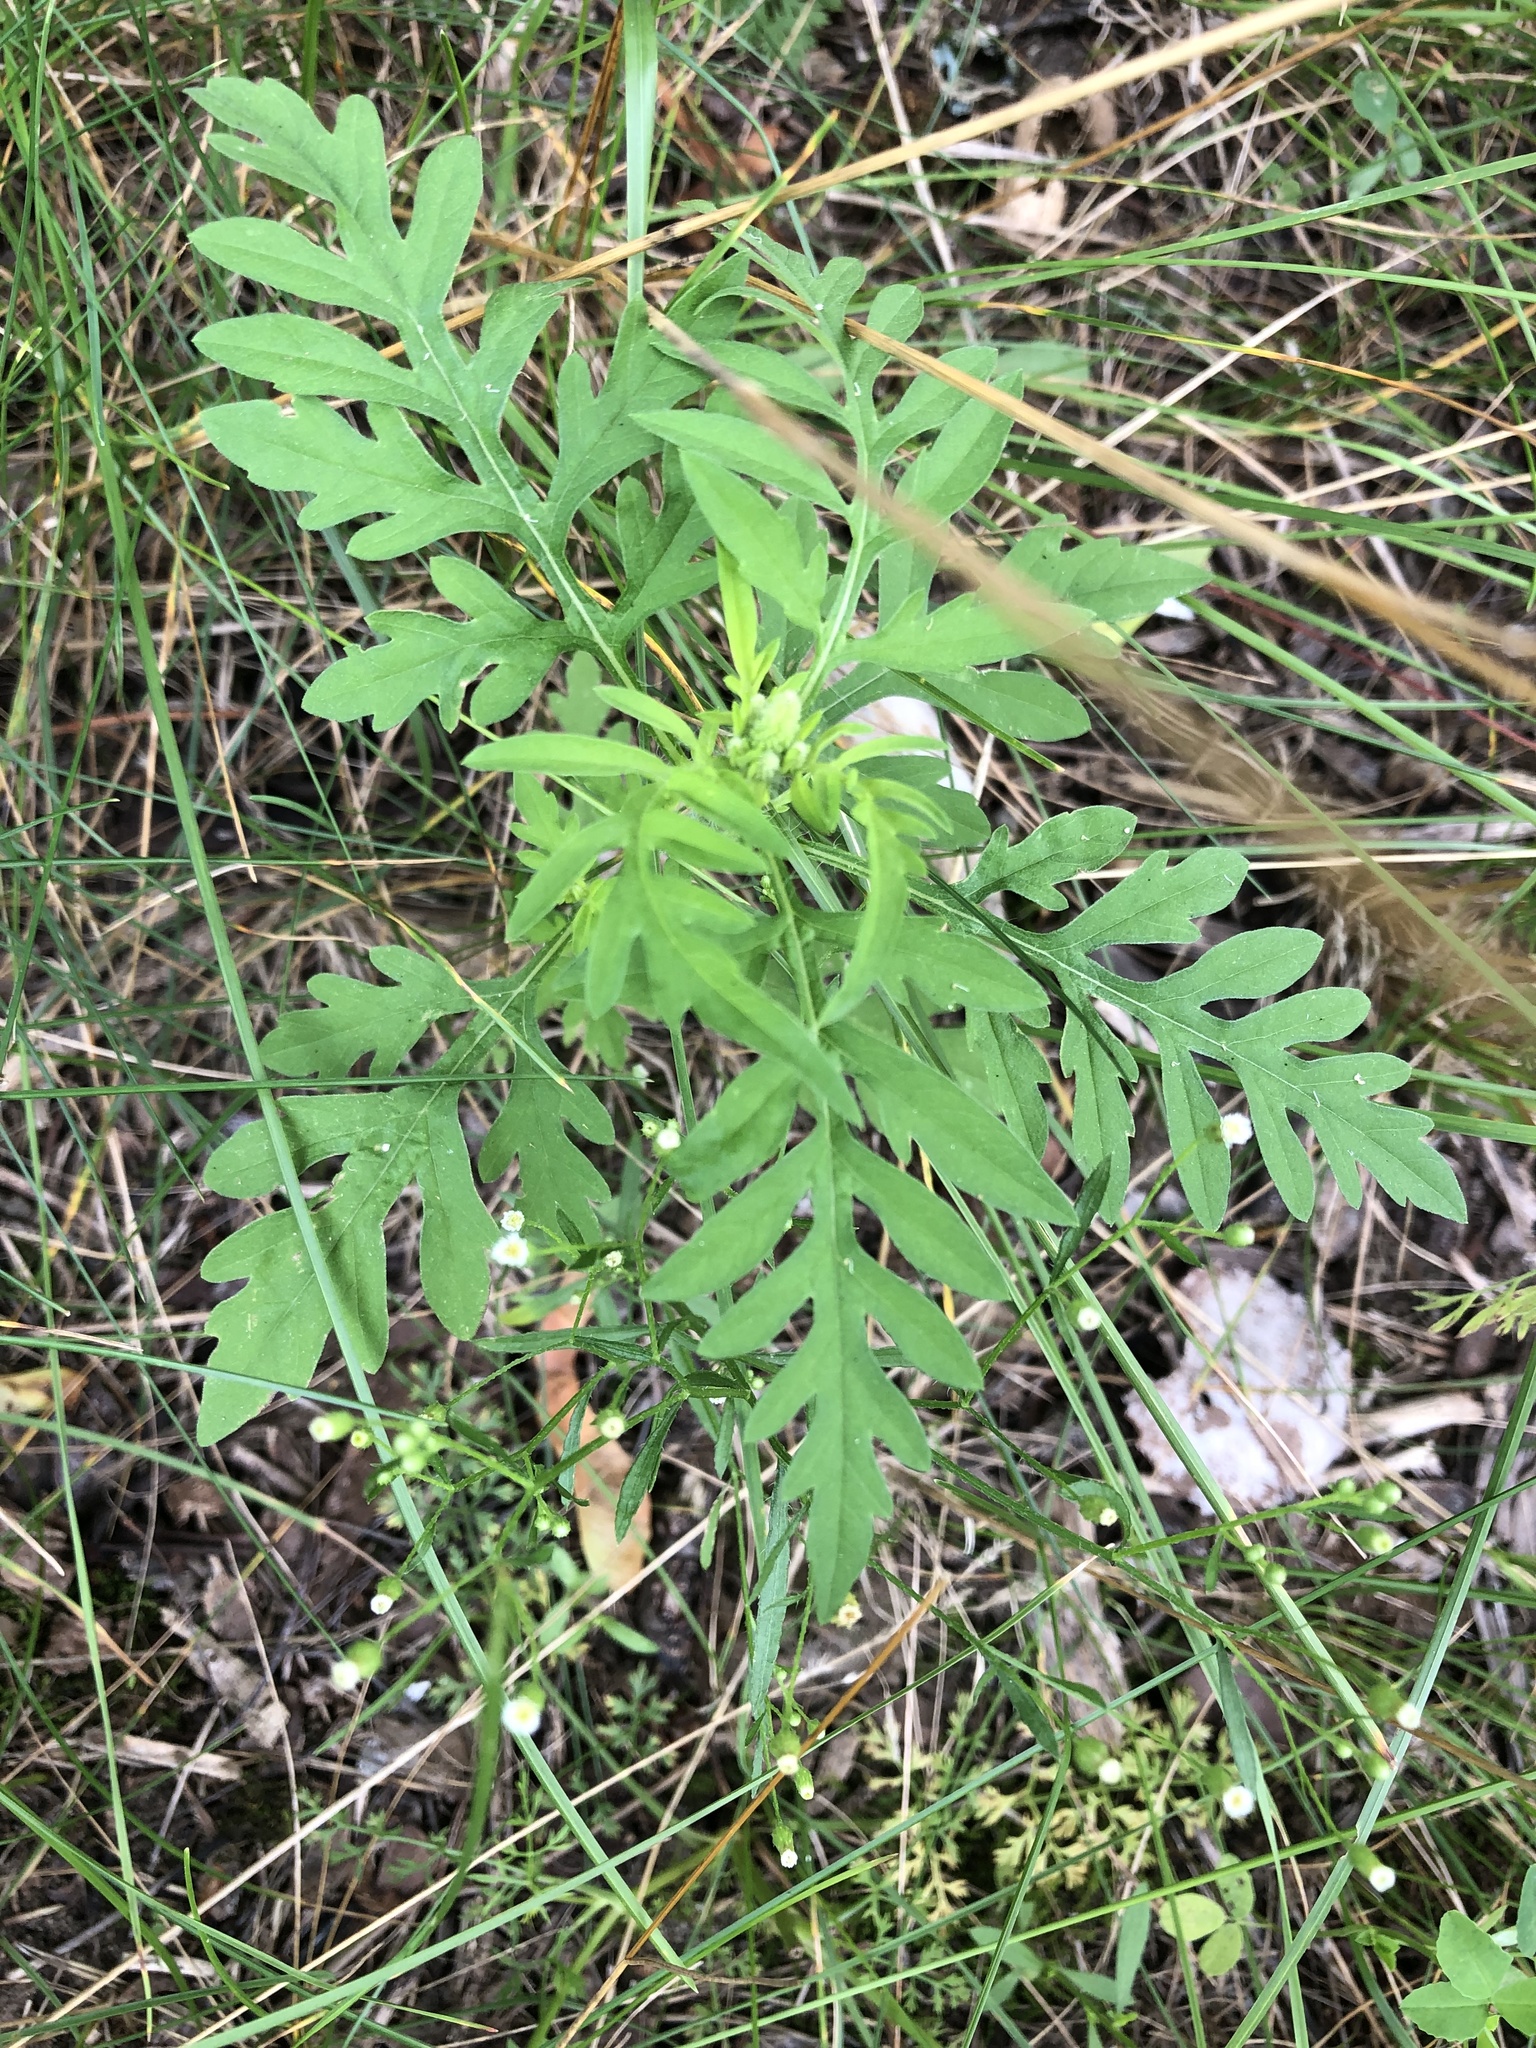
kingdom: Plantae
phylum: Tracheophyta
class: Magnoliopsida
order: Asterales
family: Asteraceae
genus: Ambrosia
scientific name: Ambrosia artemisiifolia
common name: Annual ragweed
